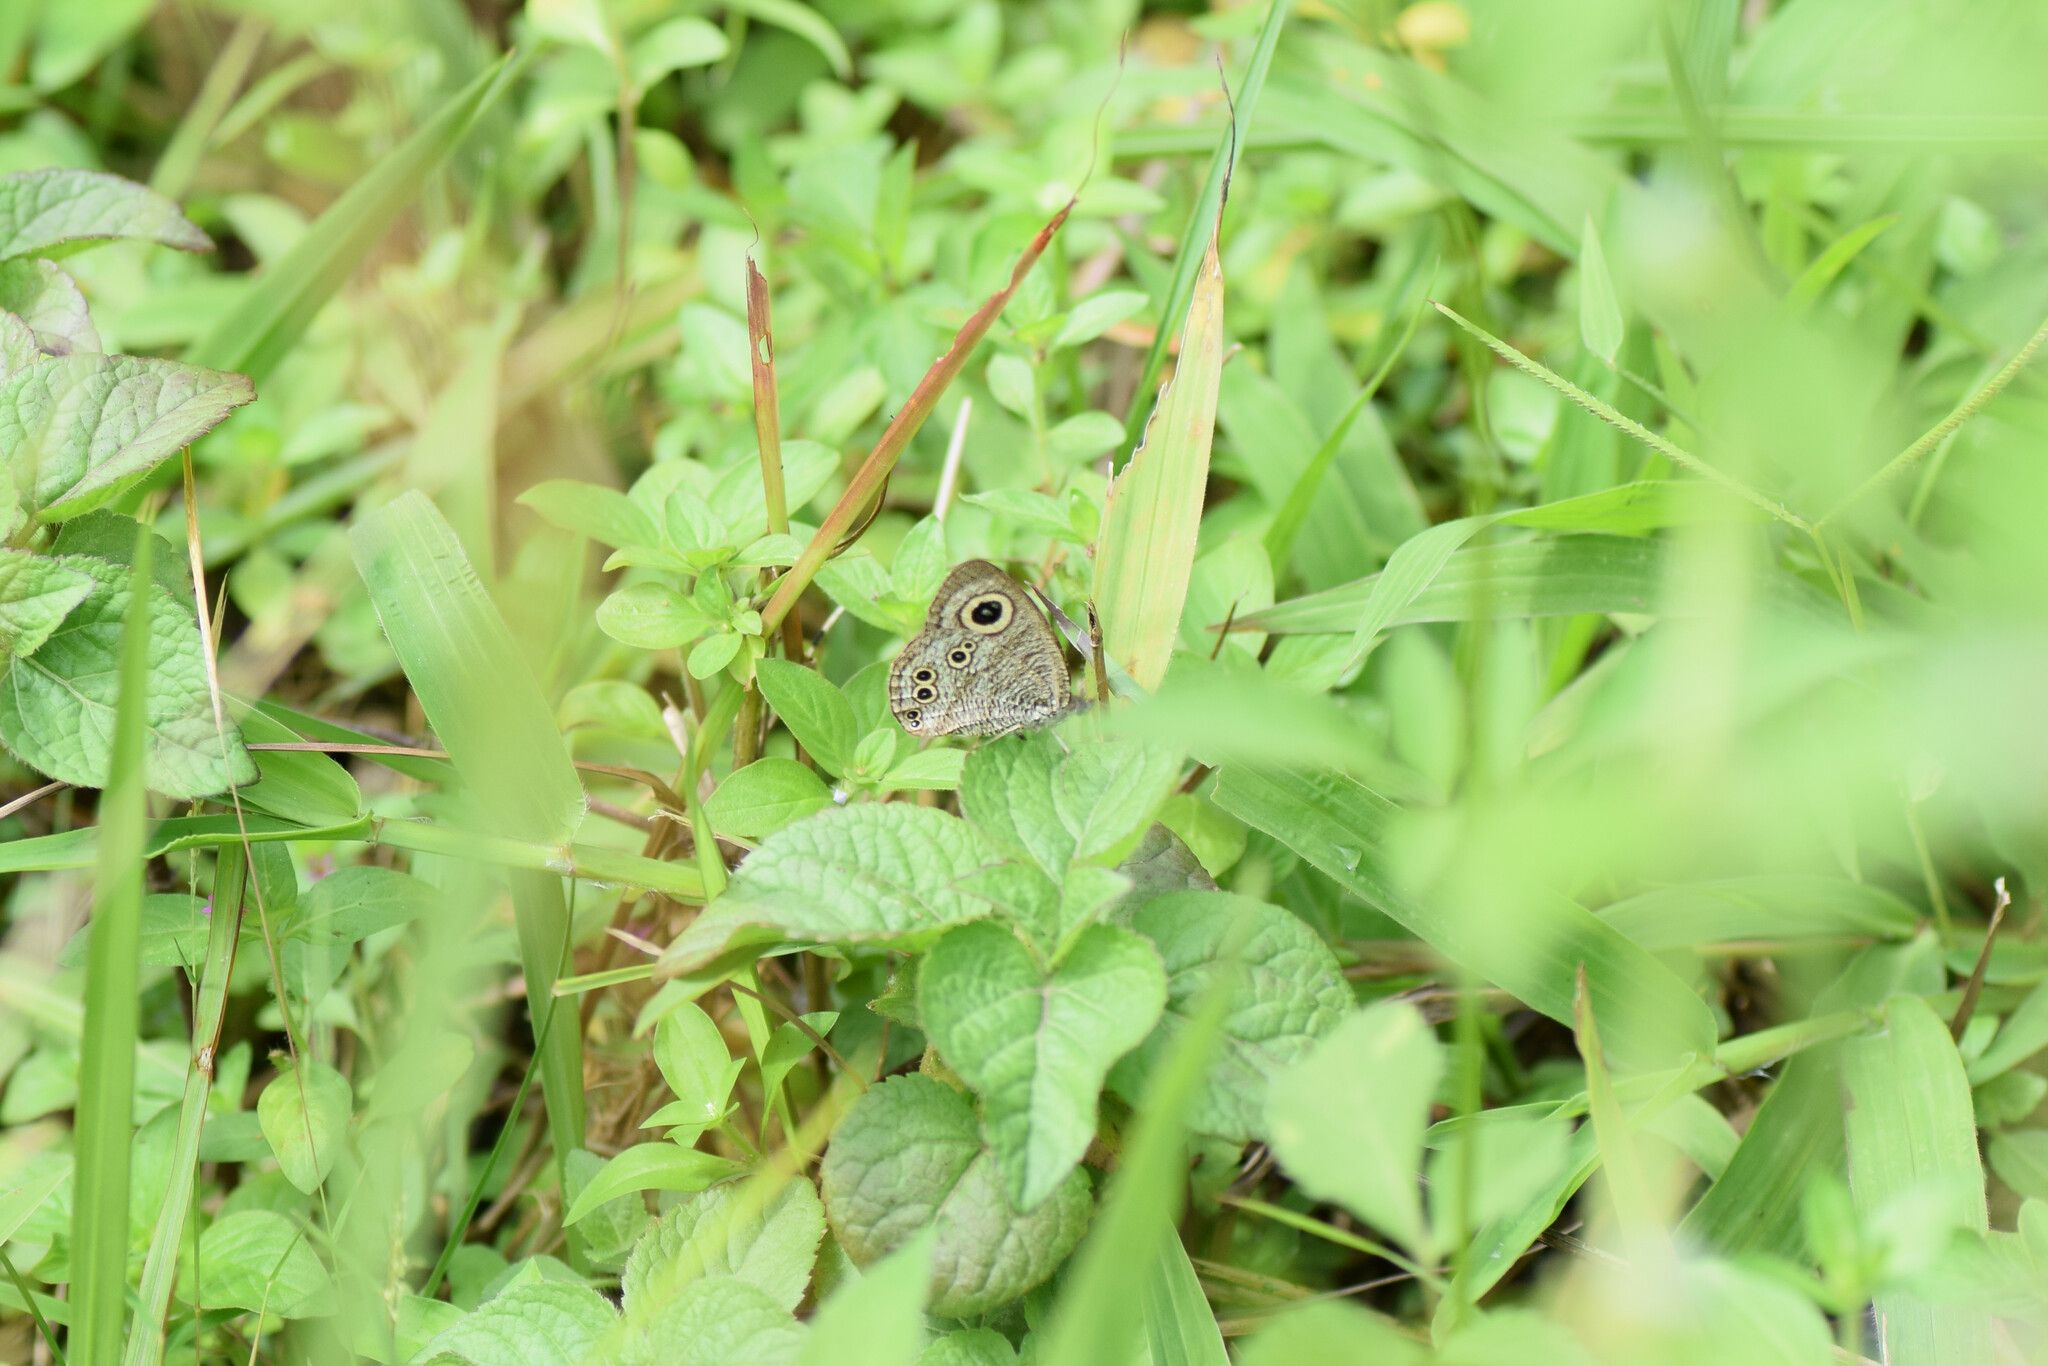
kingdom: Animalia
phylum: Arthropoda
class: Insecta
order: Lepidoptera
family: Nymphalidae
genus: Ypthima
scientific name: Ypthima baldus
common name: Common five-ring
